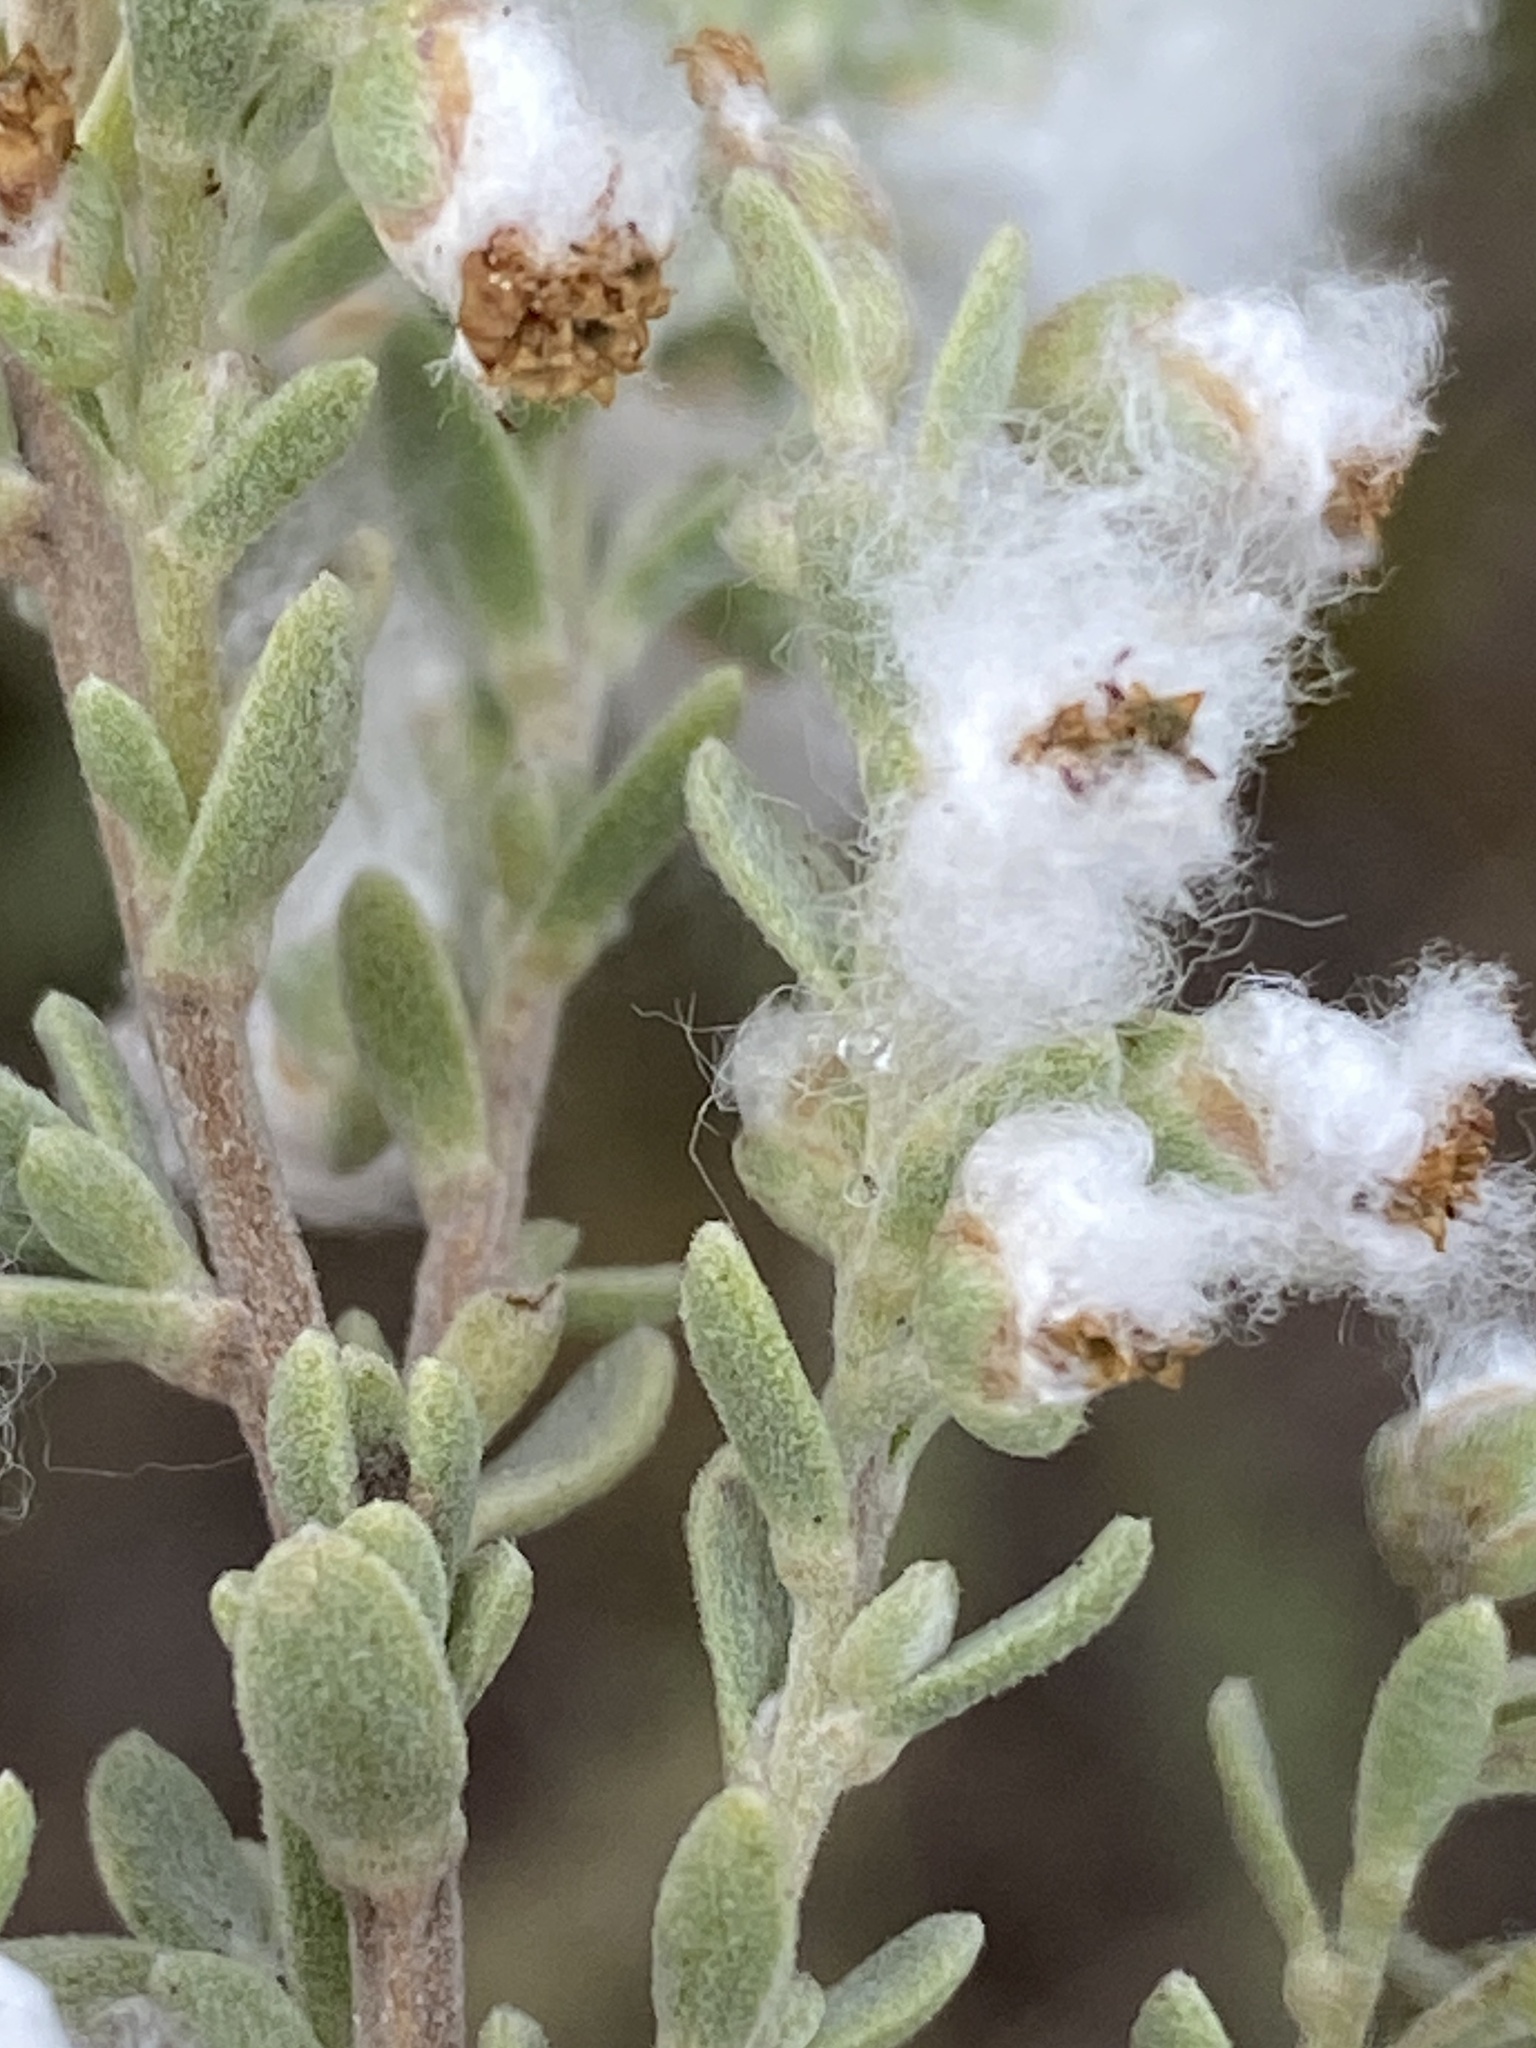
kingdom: Plantae
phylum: Tracheophyta
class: Magnoliopsida
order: Asterales
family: Asteraceae
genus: Eriocephalus
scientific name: Eriocephalus racemosus
